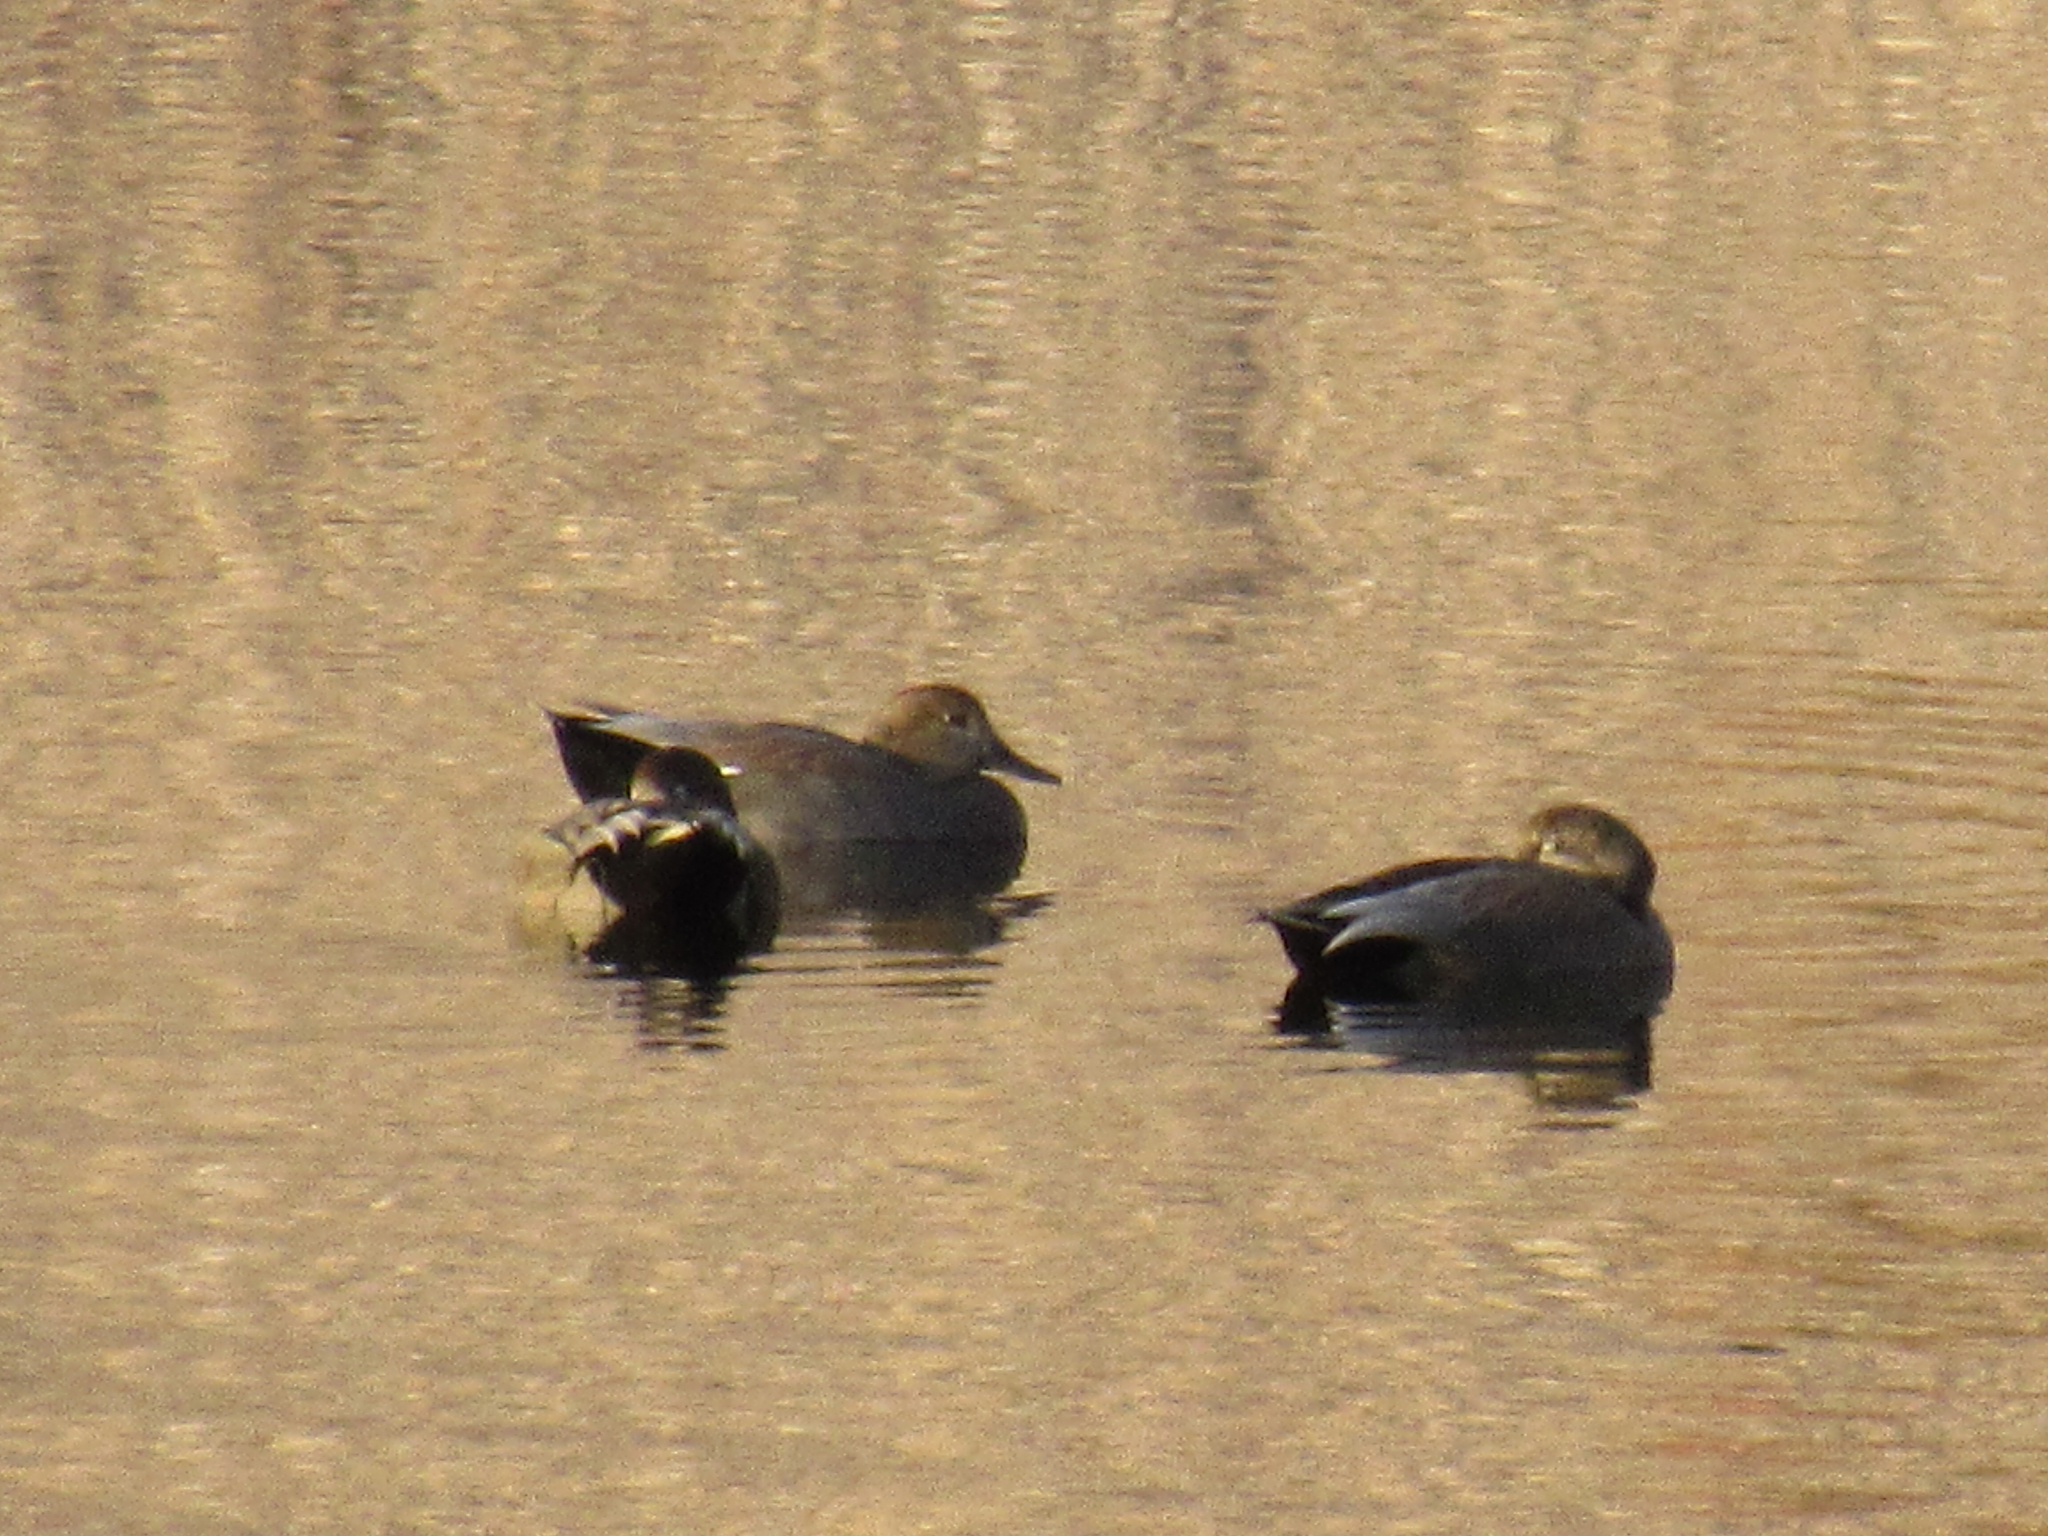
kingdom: Animalia
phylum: Chordata
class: Aves
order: Anseriformes
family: Anatidae
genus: Mareca
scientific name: Mareca strepera
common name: Gadwall
